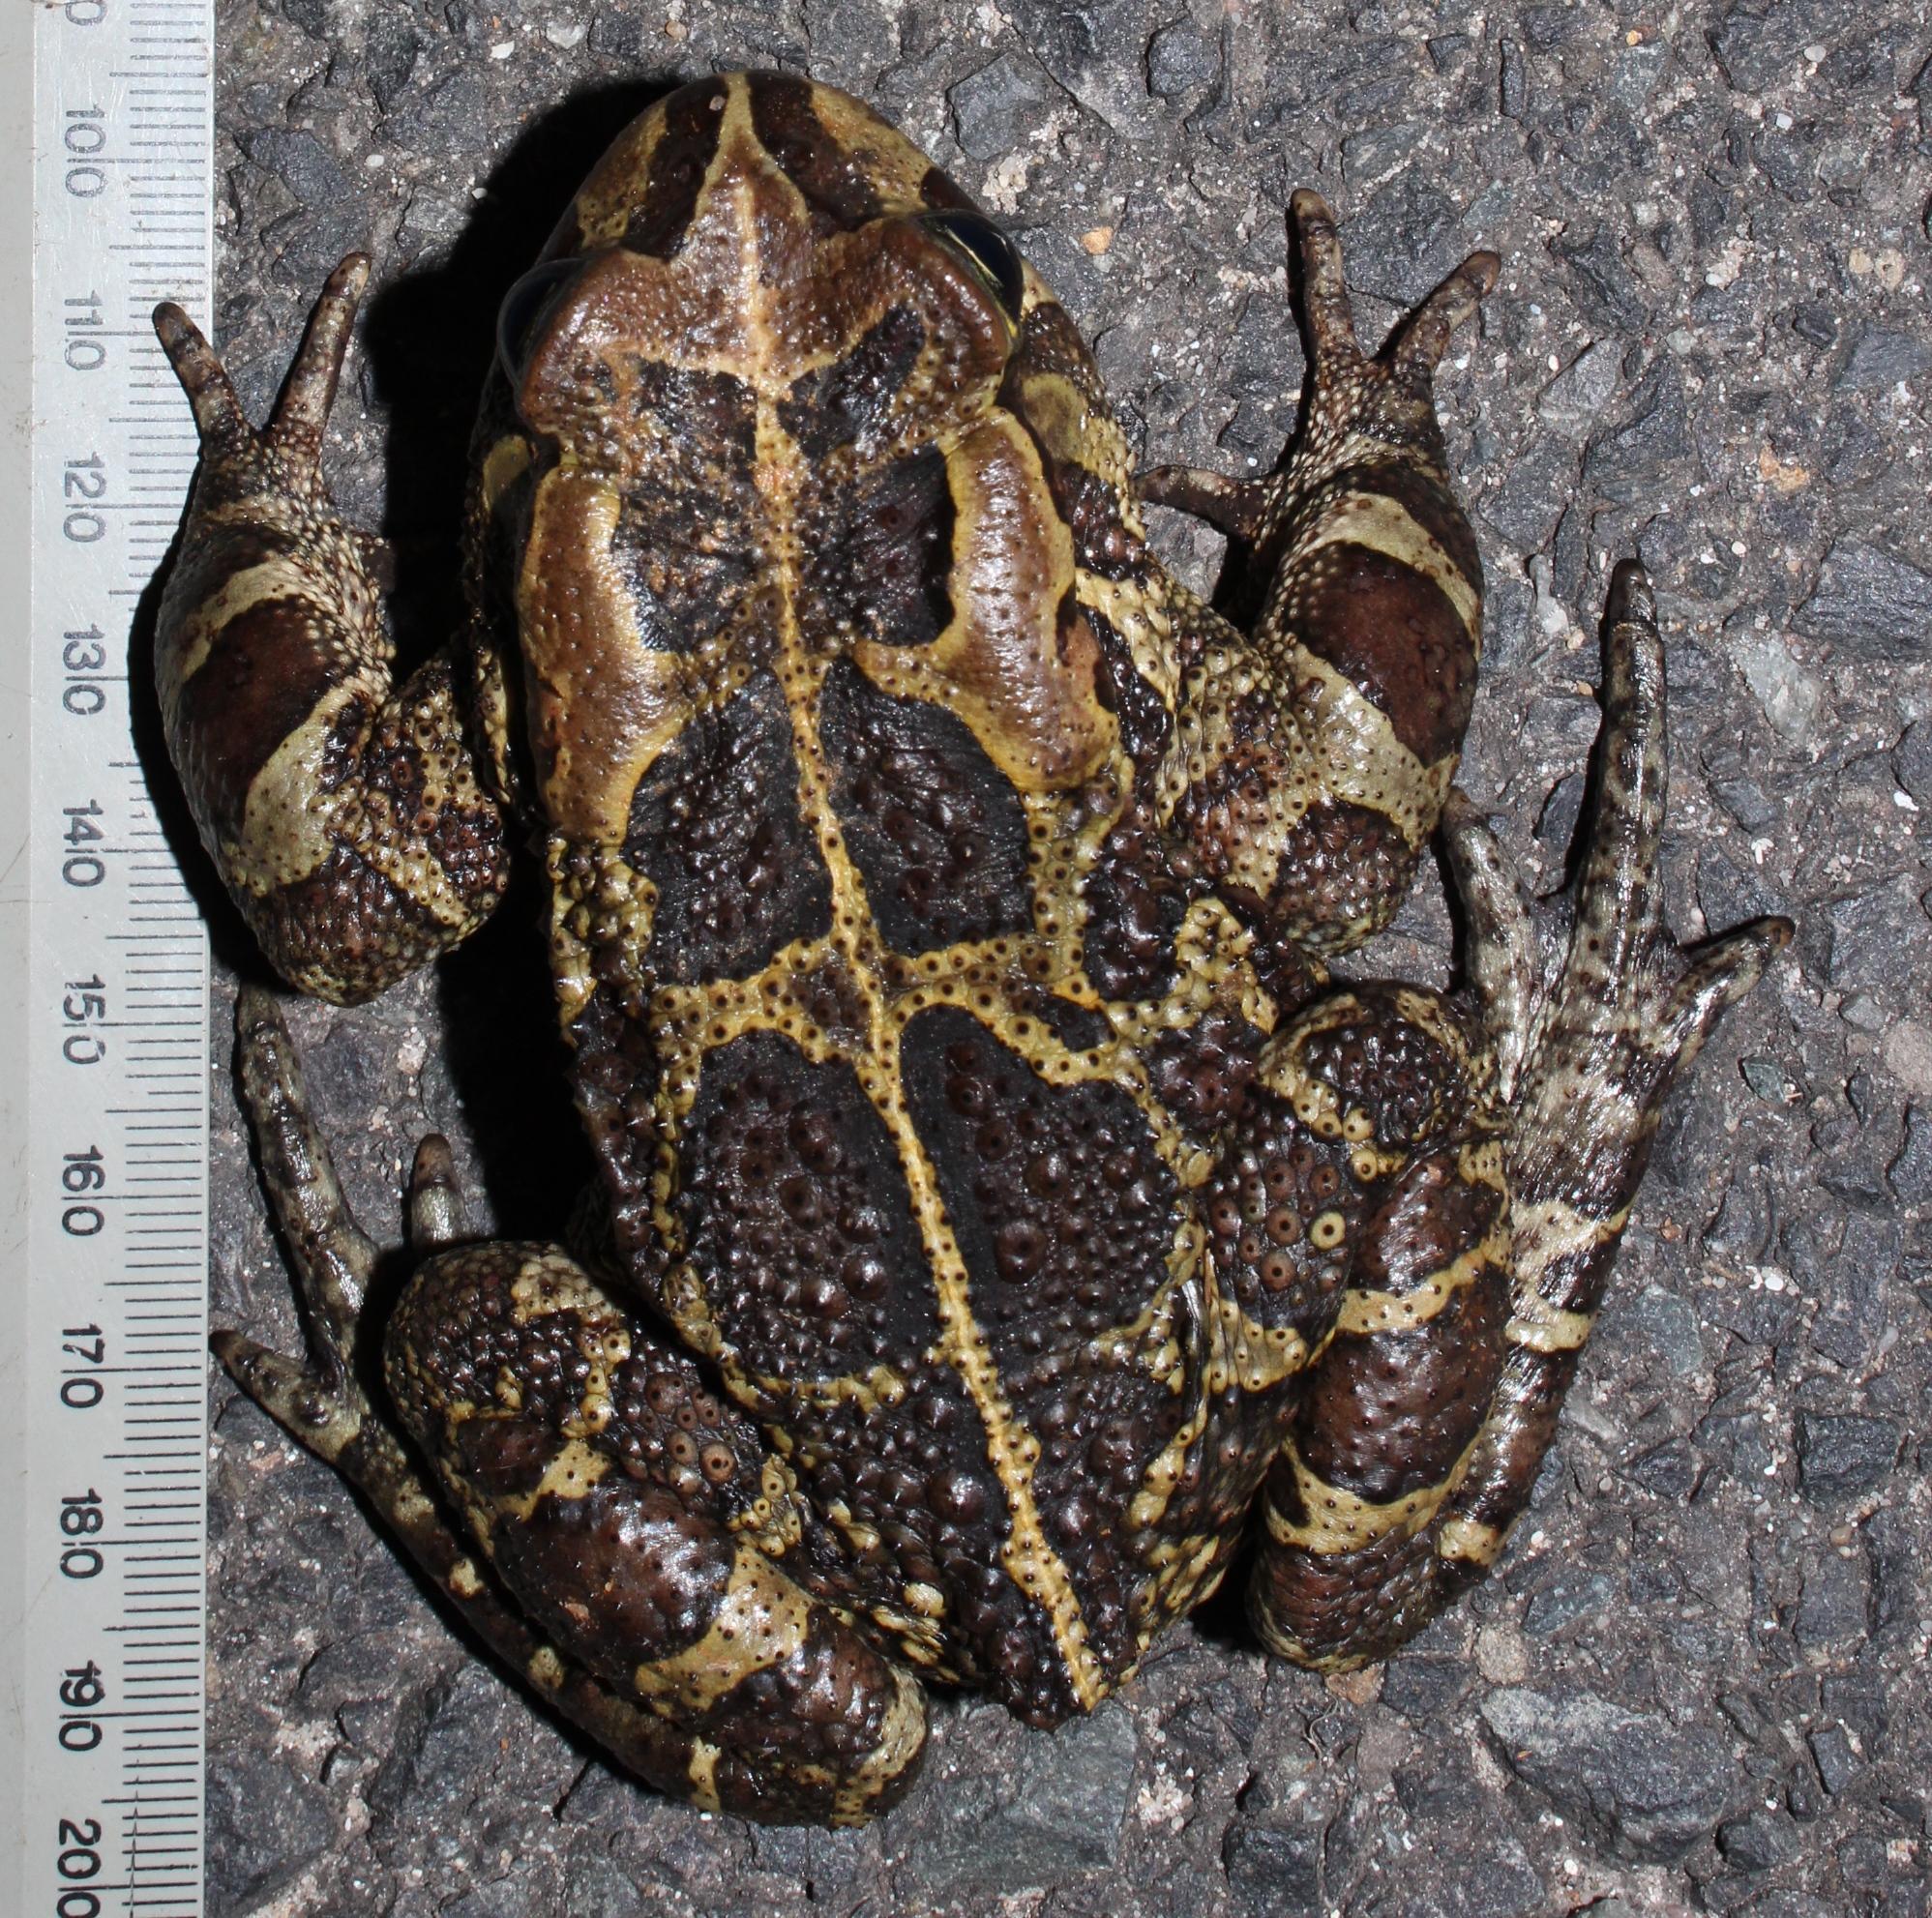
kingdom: Animalia
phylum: Chordata
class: Amphibia
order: Anura
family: Bufonidae
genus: Sclerophrys
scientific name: Sclerophrys pantherina
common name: Panther toad
